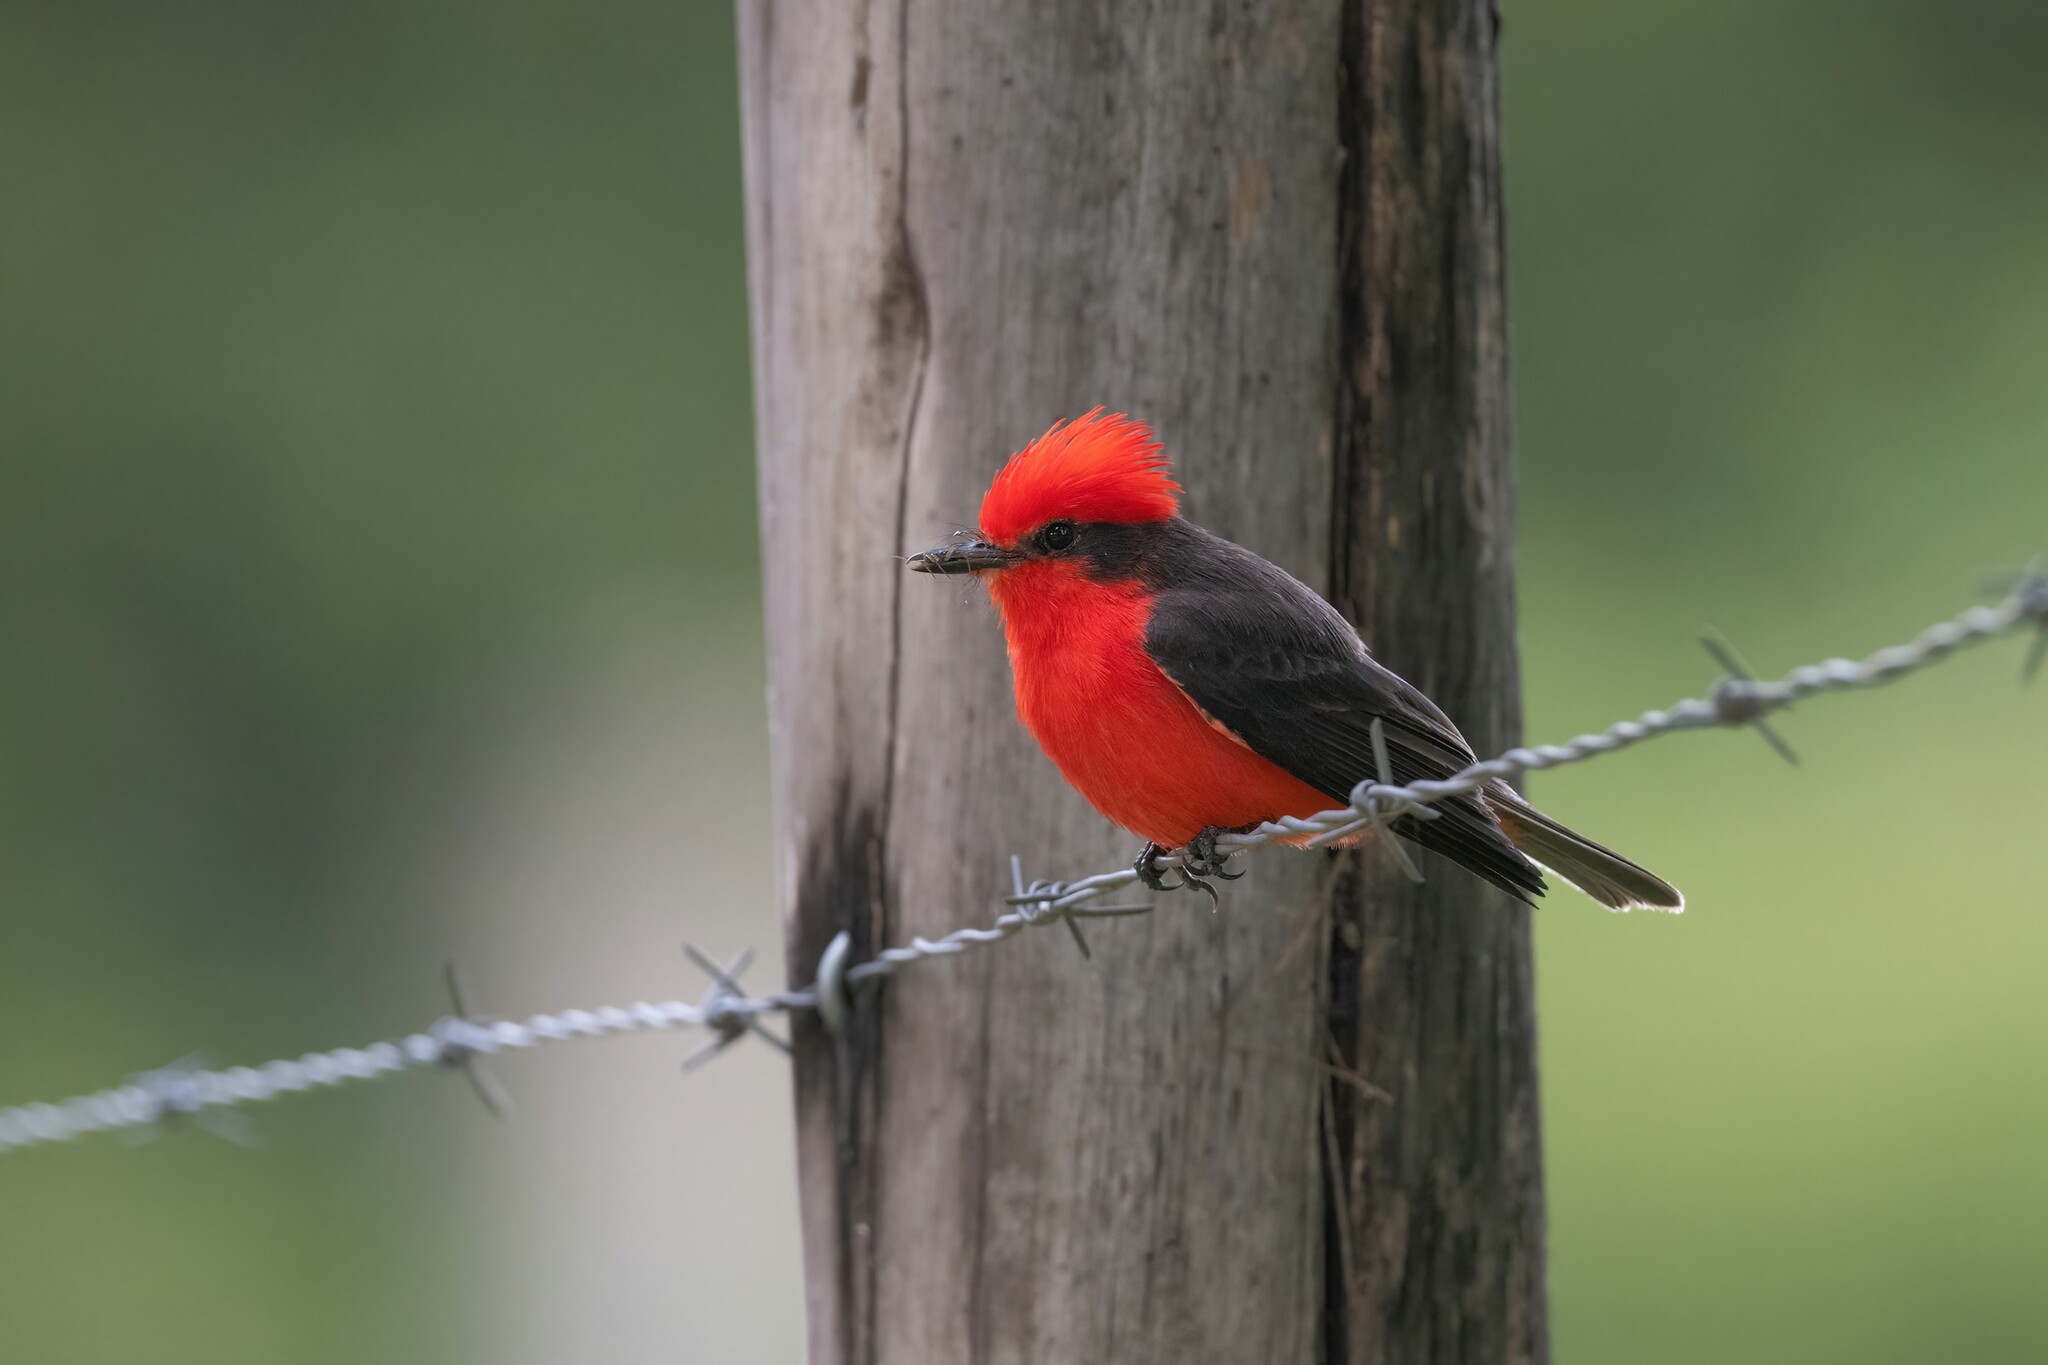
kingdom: Animalia
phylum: Chordata
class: Aves
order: Passeriformes
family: Tyrannidae
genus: Pyrocephalus
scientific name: Pyrocephalus rubinus
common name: Vermilion flycatcher
